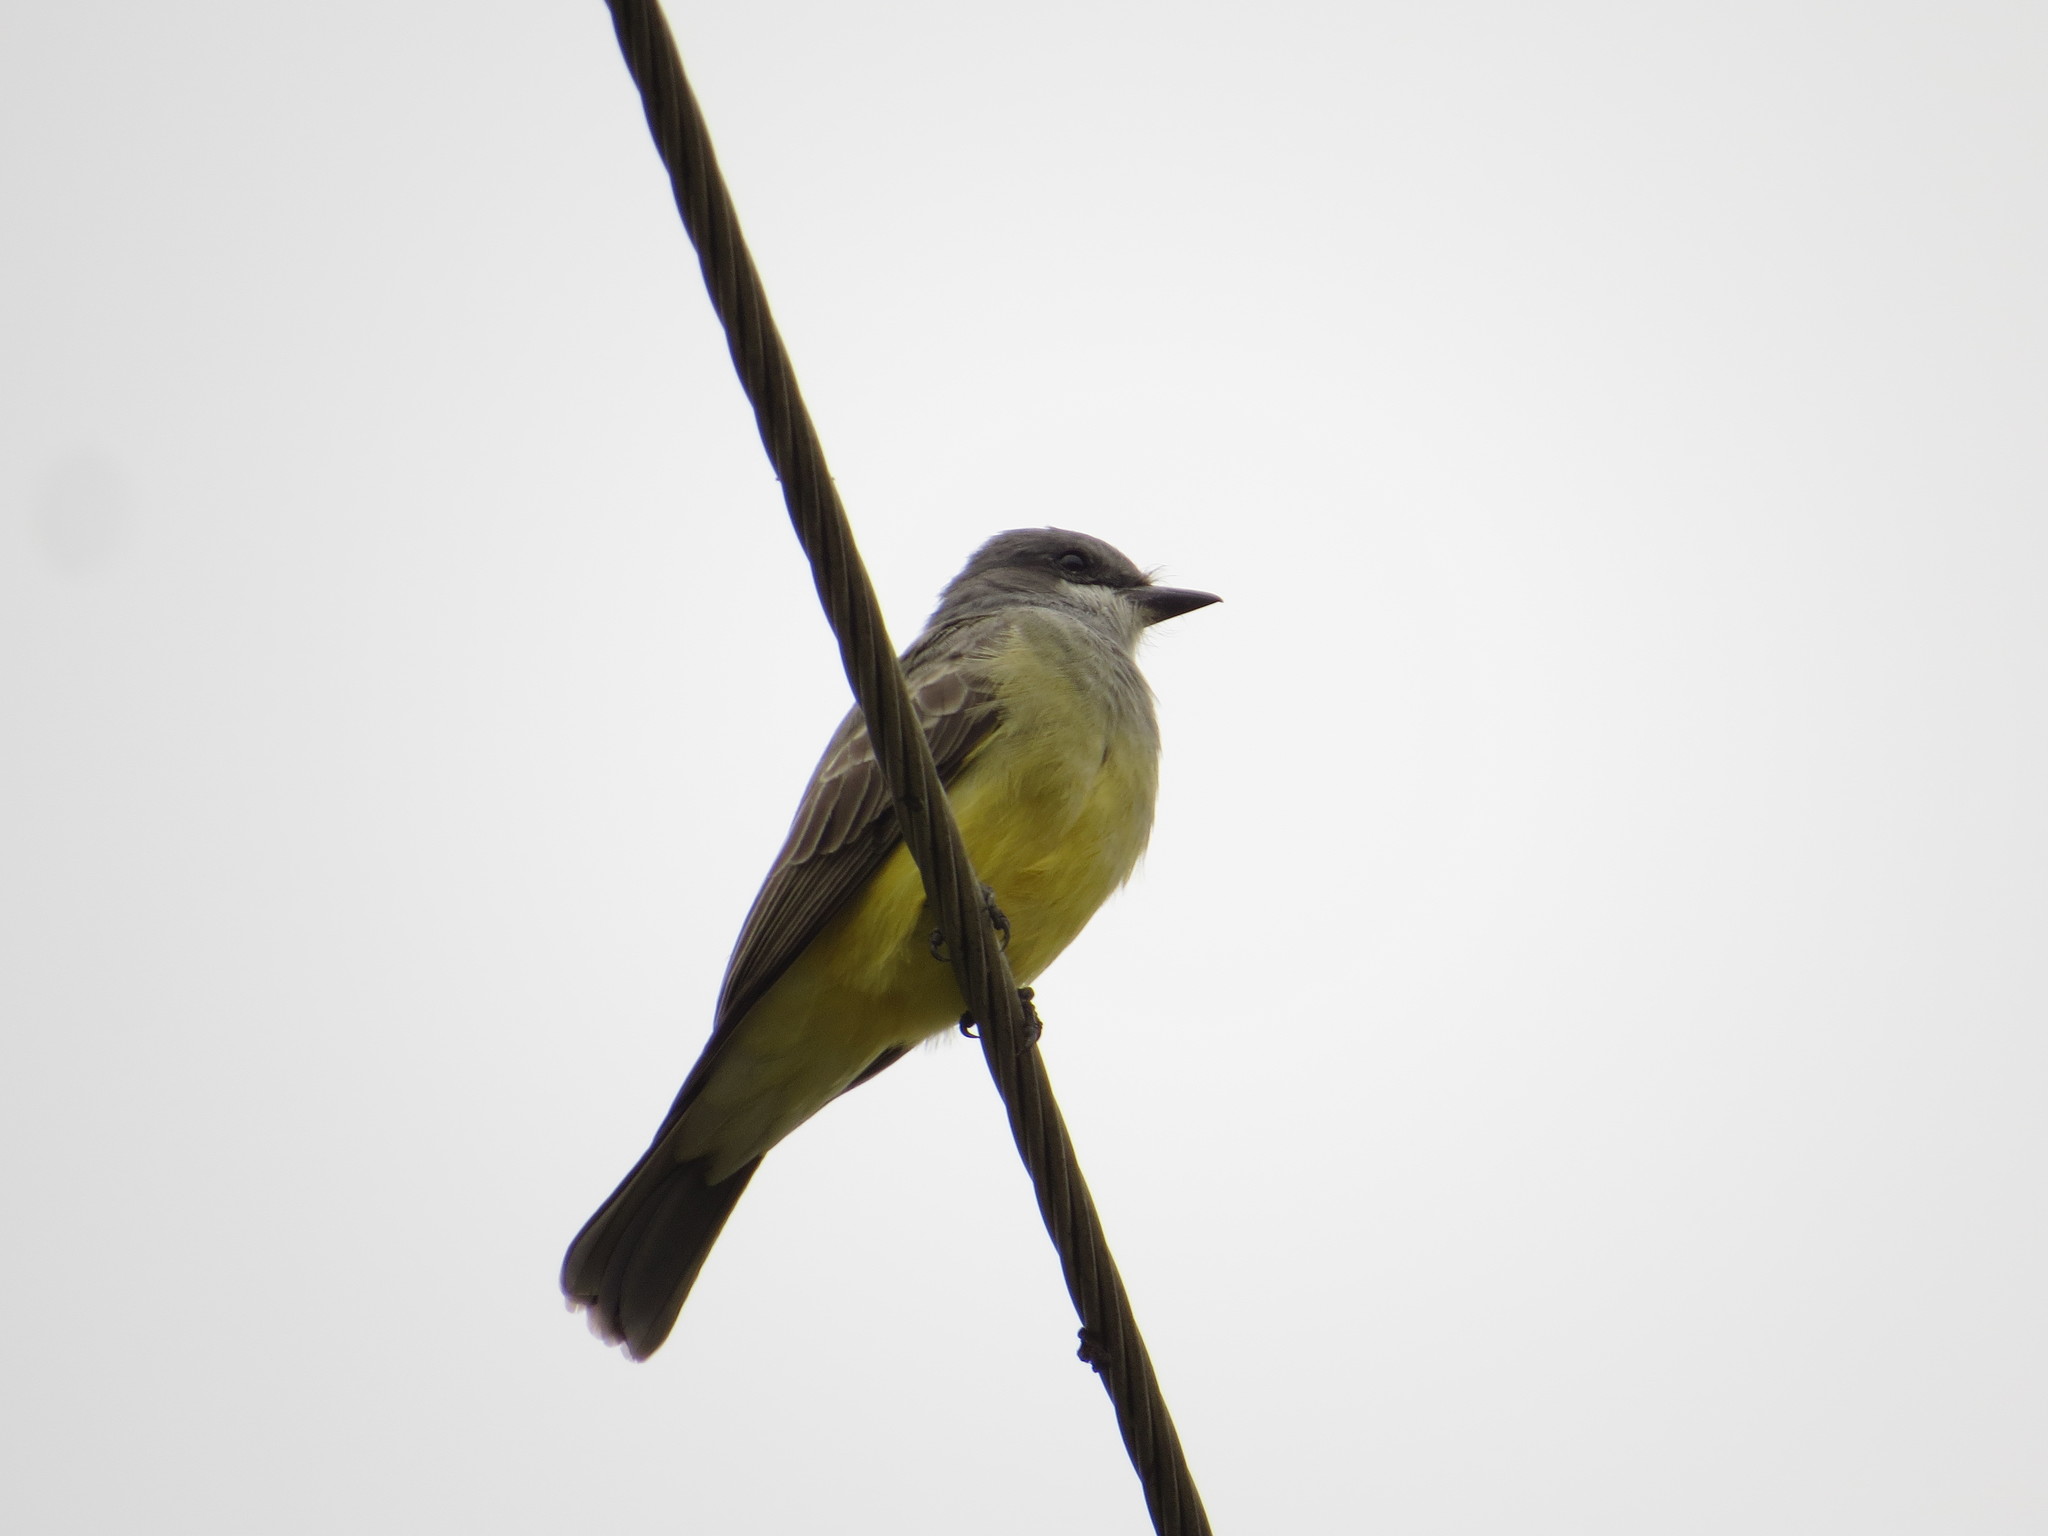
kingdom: Animalia
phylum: Chordata
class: Aves
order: Passeriformes
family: Tyrannidae
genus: Tyrannus
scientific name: Tyrannus vociferans
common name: Cassin's kingbird
